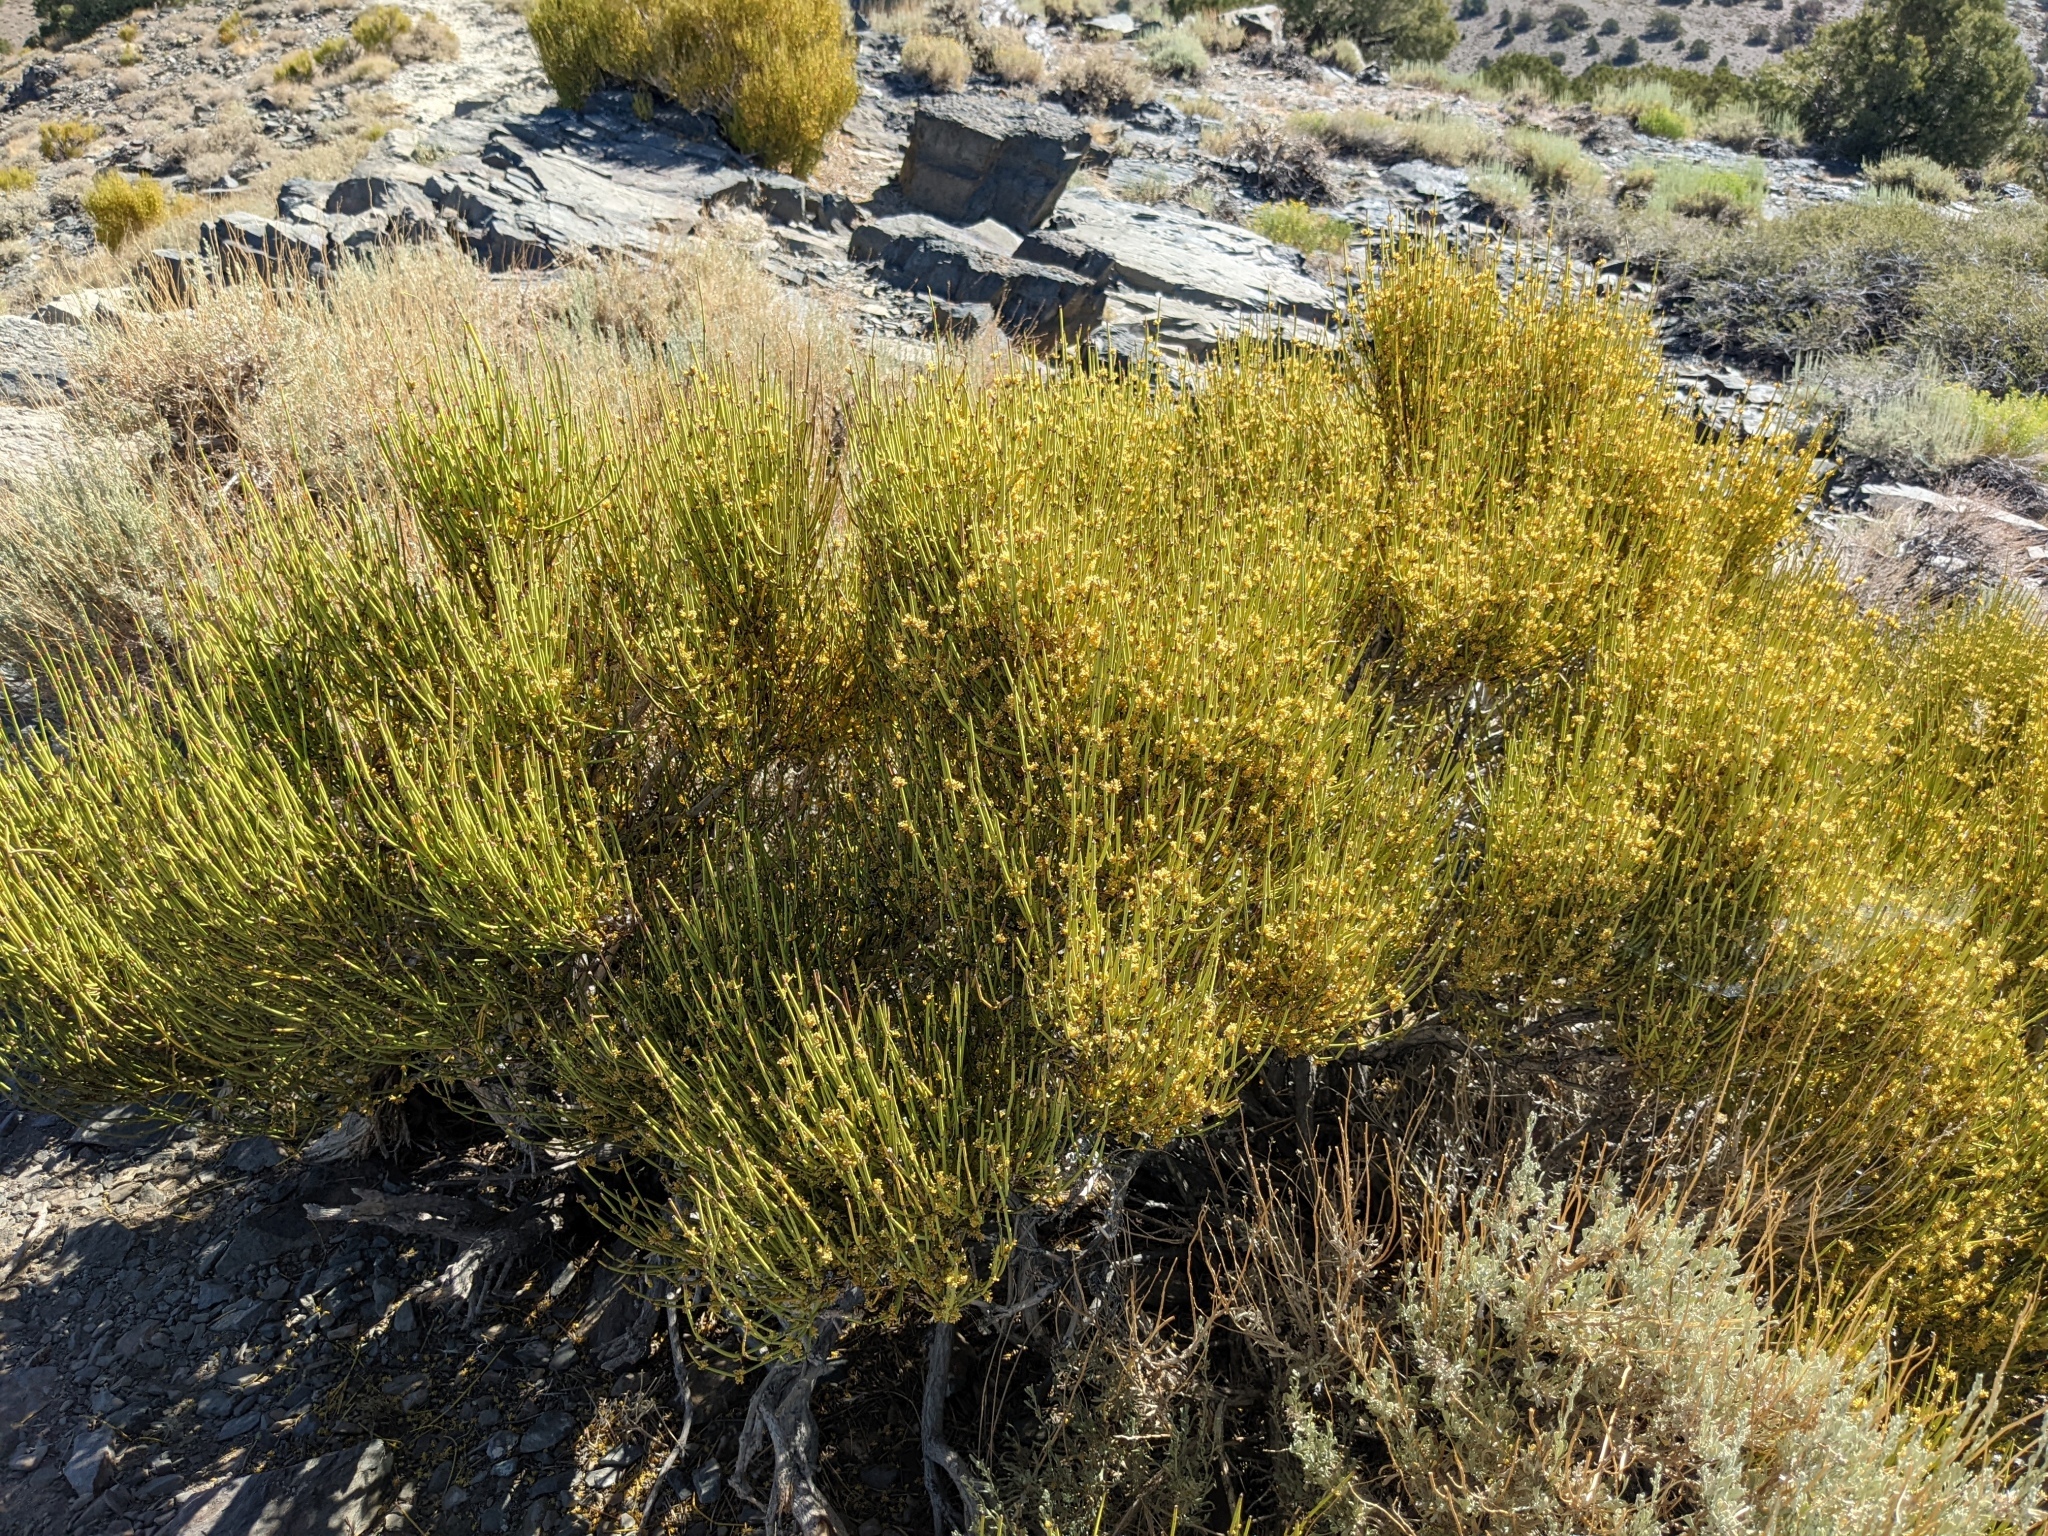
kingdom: Plantae
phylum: Tracheophyta
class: Gnetopsida
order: Ephedrales
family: Ephedraceae
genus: Ephedra
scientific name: Ephedra viridis
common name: Green ephedra
